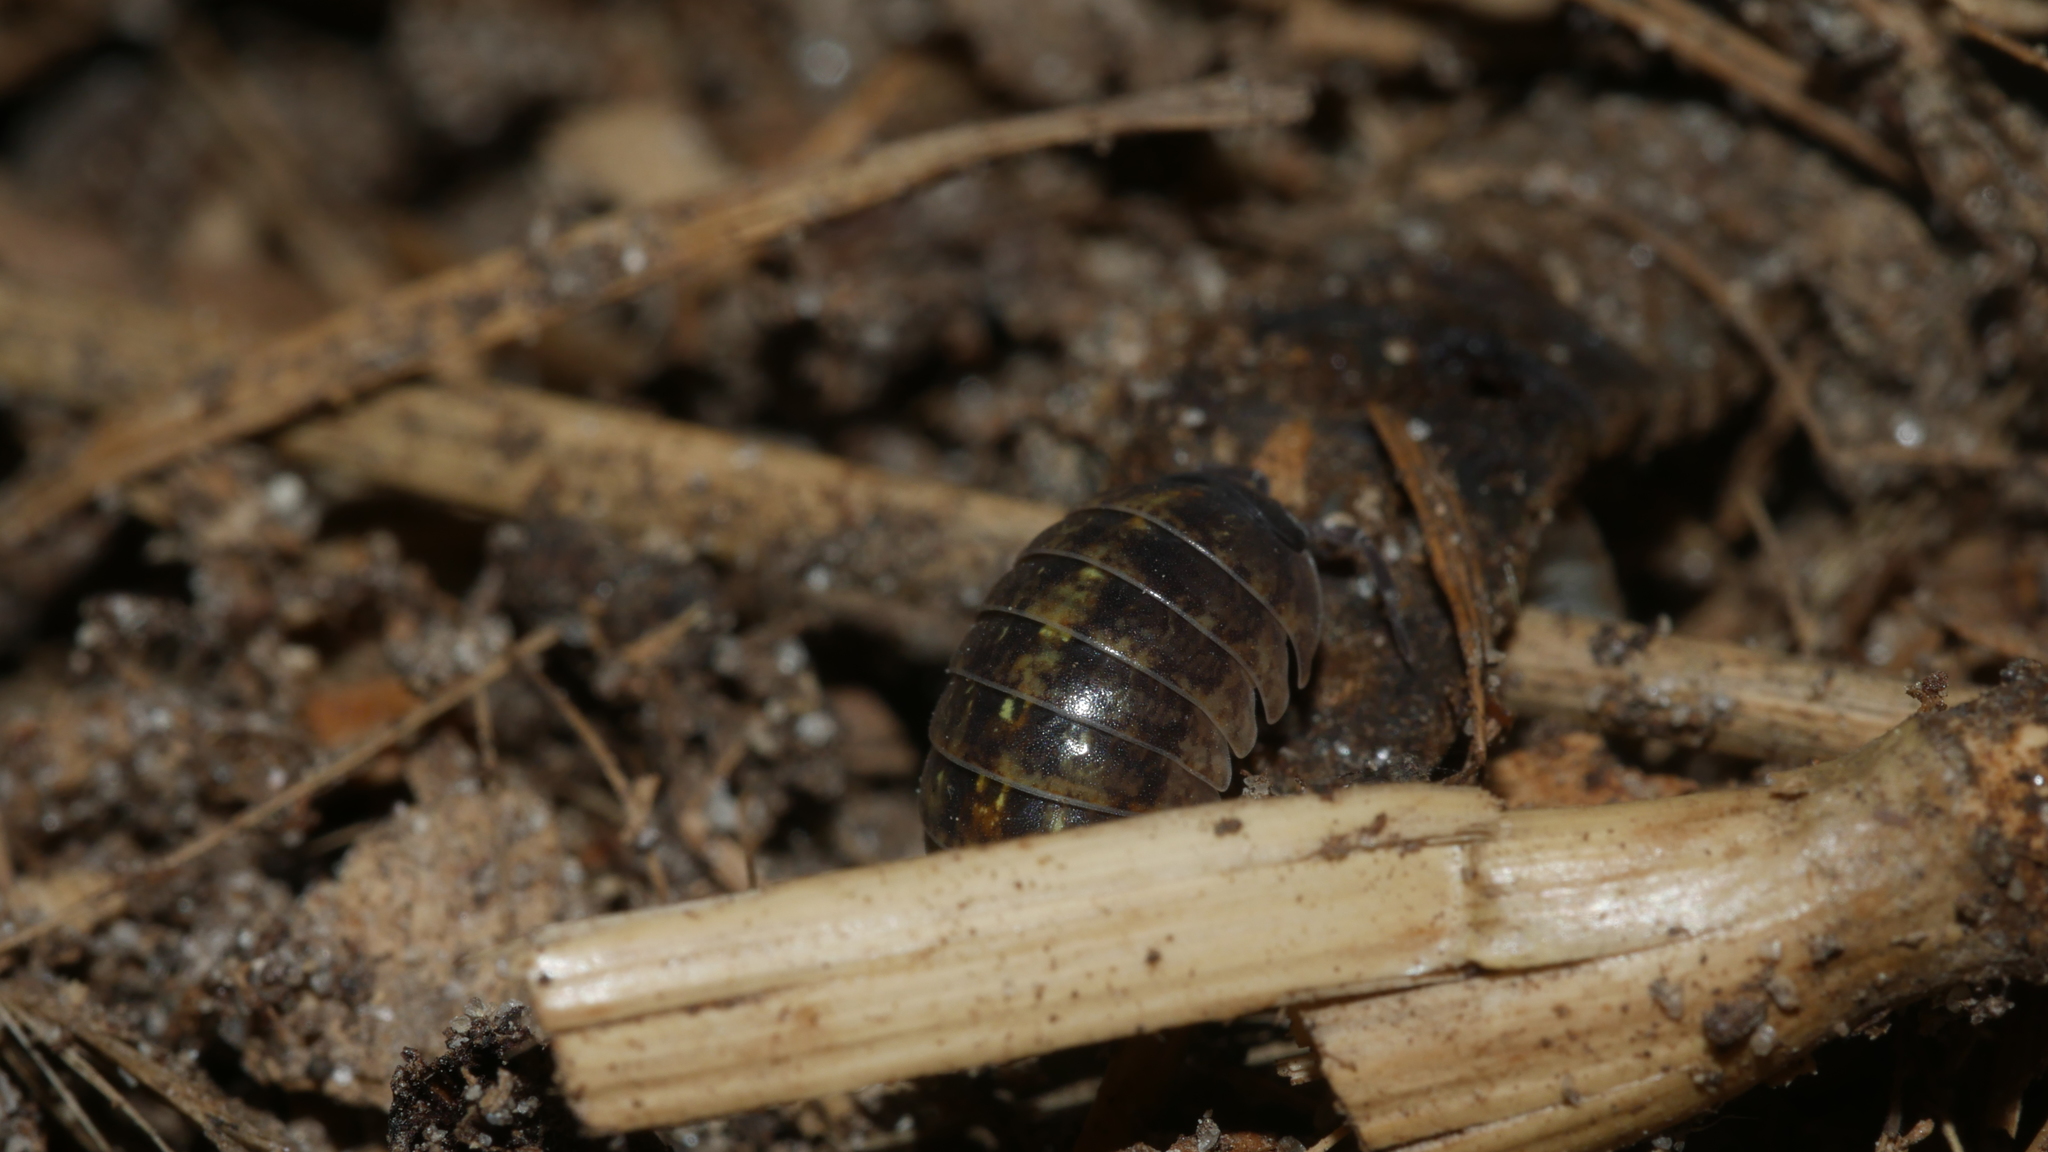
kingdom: Animalia
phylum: Arthropoda
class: Malacostraca
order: Isopoda
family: Armadillidiidae
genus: Armadillidium
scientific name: Armadillidium vulgare
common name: Common pill woodlouse
